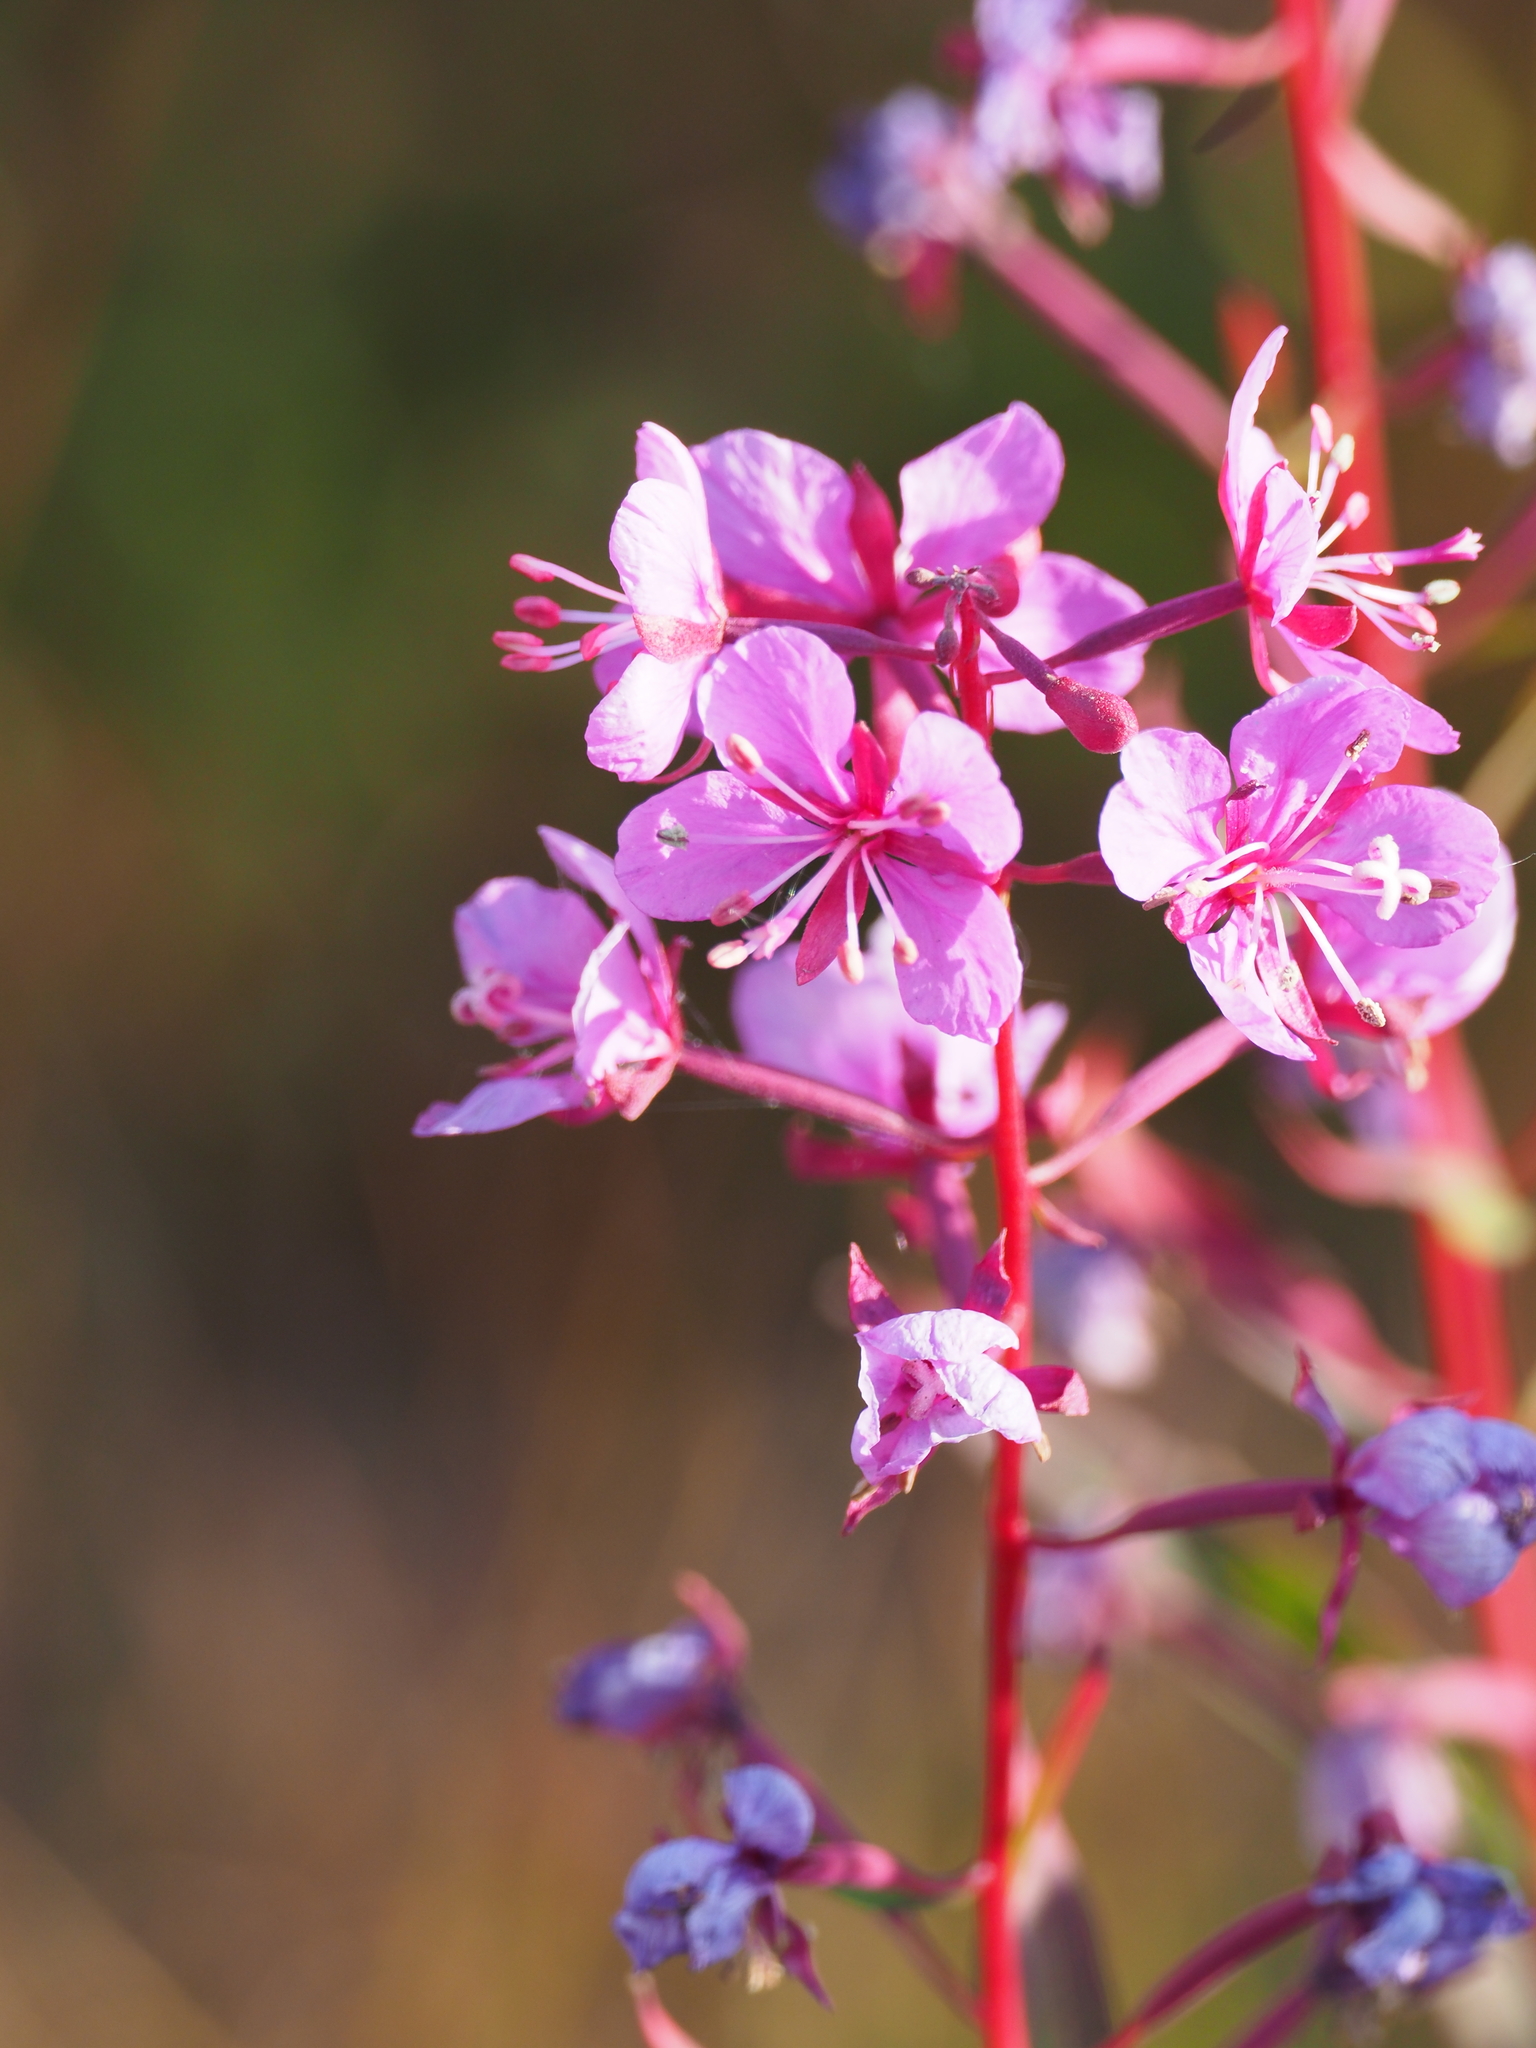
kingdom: Plantae
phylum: Tracheophyta
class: Magnoliopsida
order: Myrtales
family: Onagraceae
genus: Chamaenerion
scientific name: Chamaenerion angustifolium
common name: Fireweed
